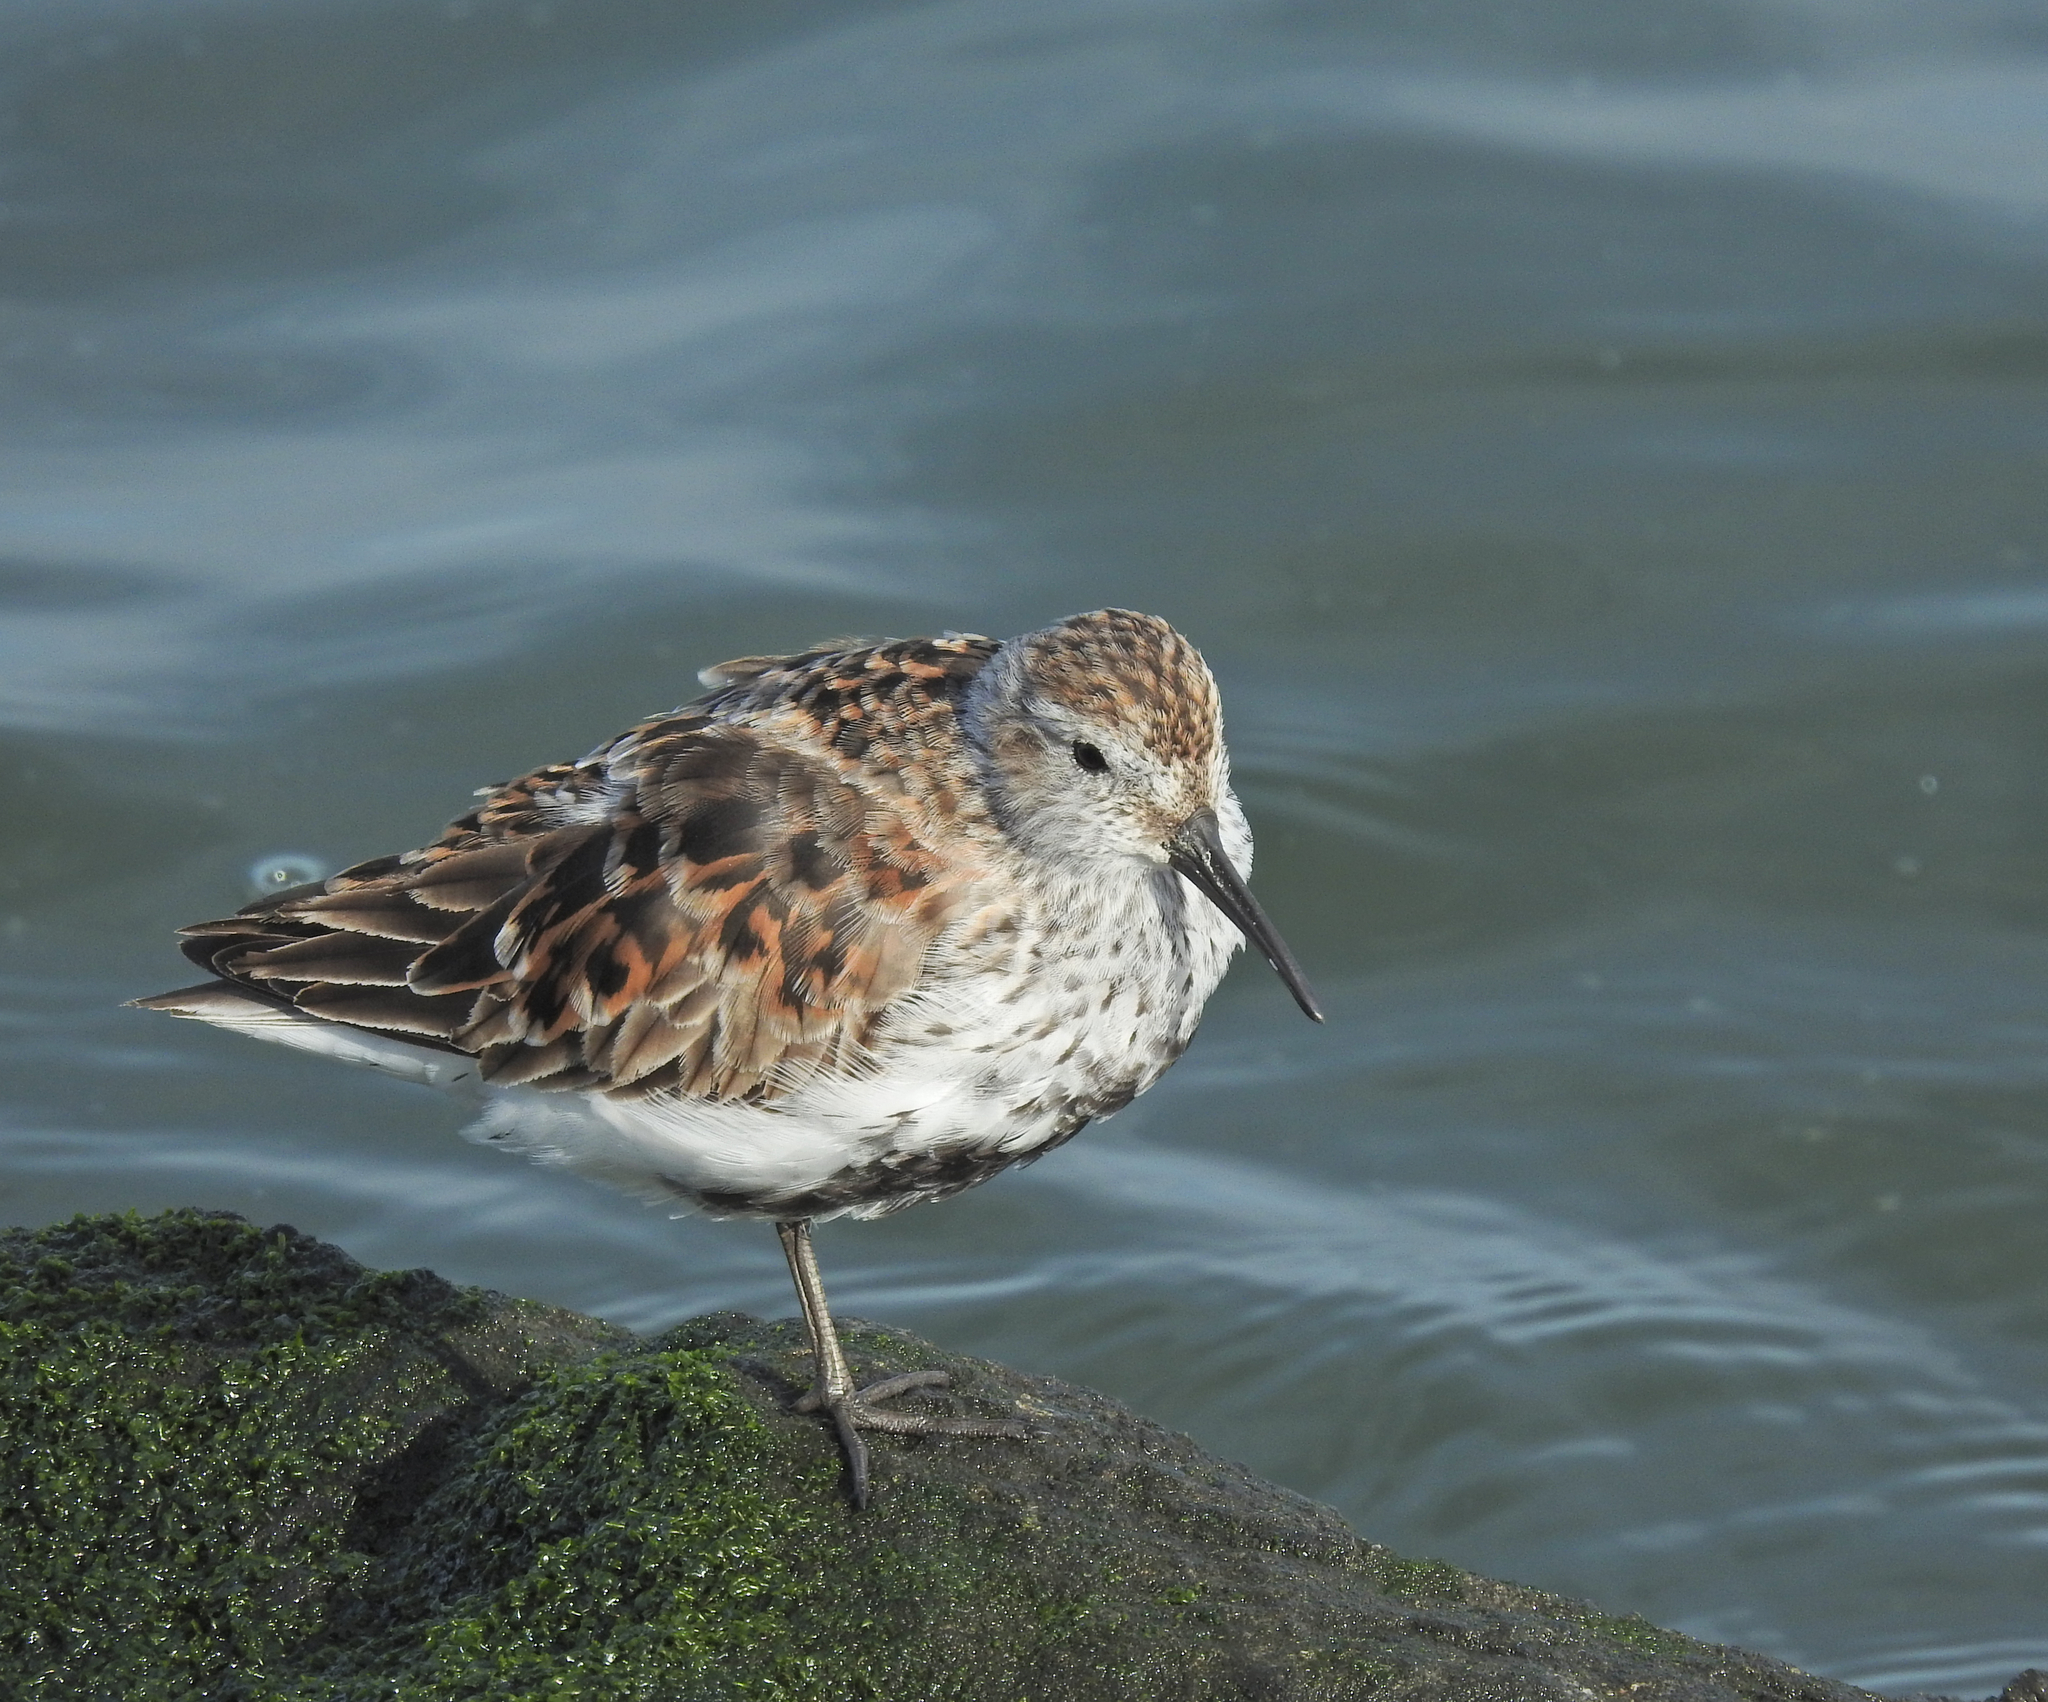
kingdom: Animalia
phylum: Chordata
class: Aves
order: Charadriiformes
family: Scolopacidae
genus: Calidris
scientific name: Calidris alpina
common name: Dunlin
